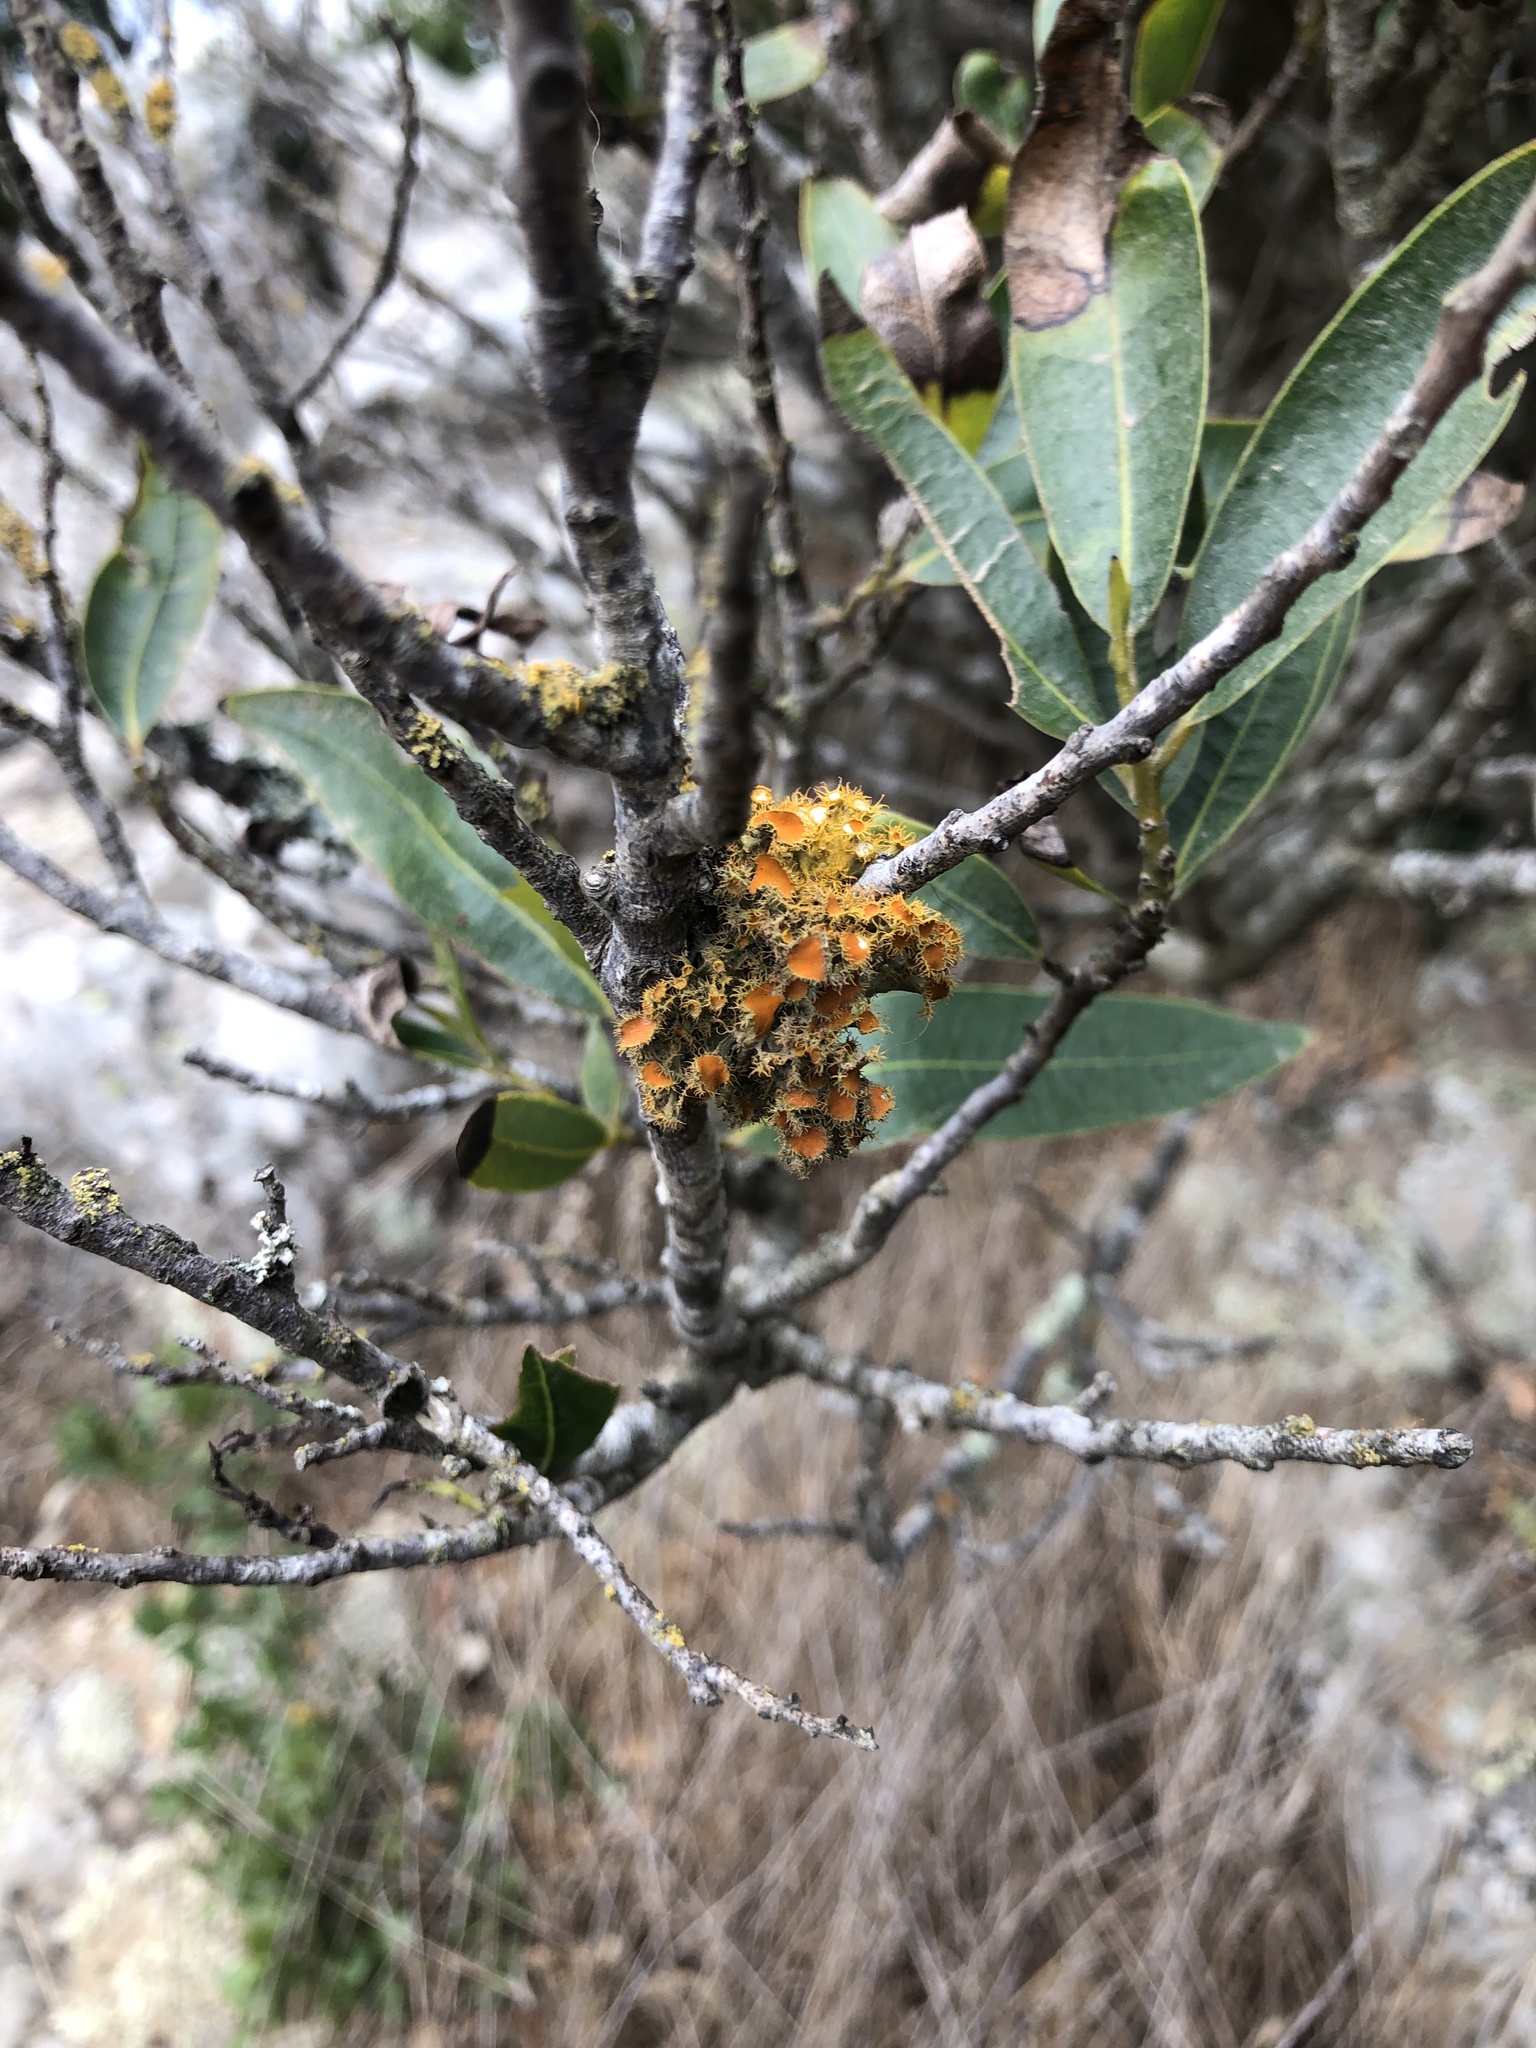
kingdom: Fungi
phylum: Ascomycota
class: Lecanoromycetes
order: Teloschistales
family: Teloschistaceae
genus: Niorma
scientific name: Niorma chrysophthalma
